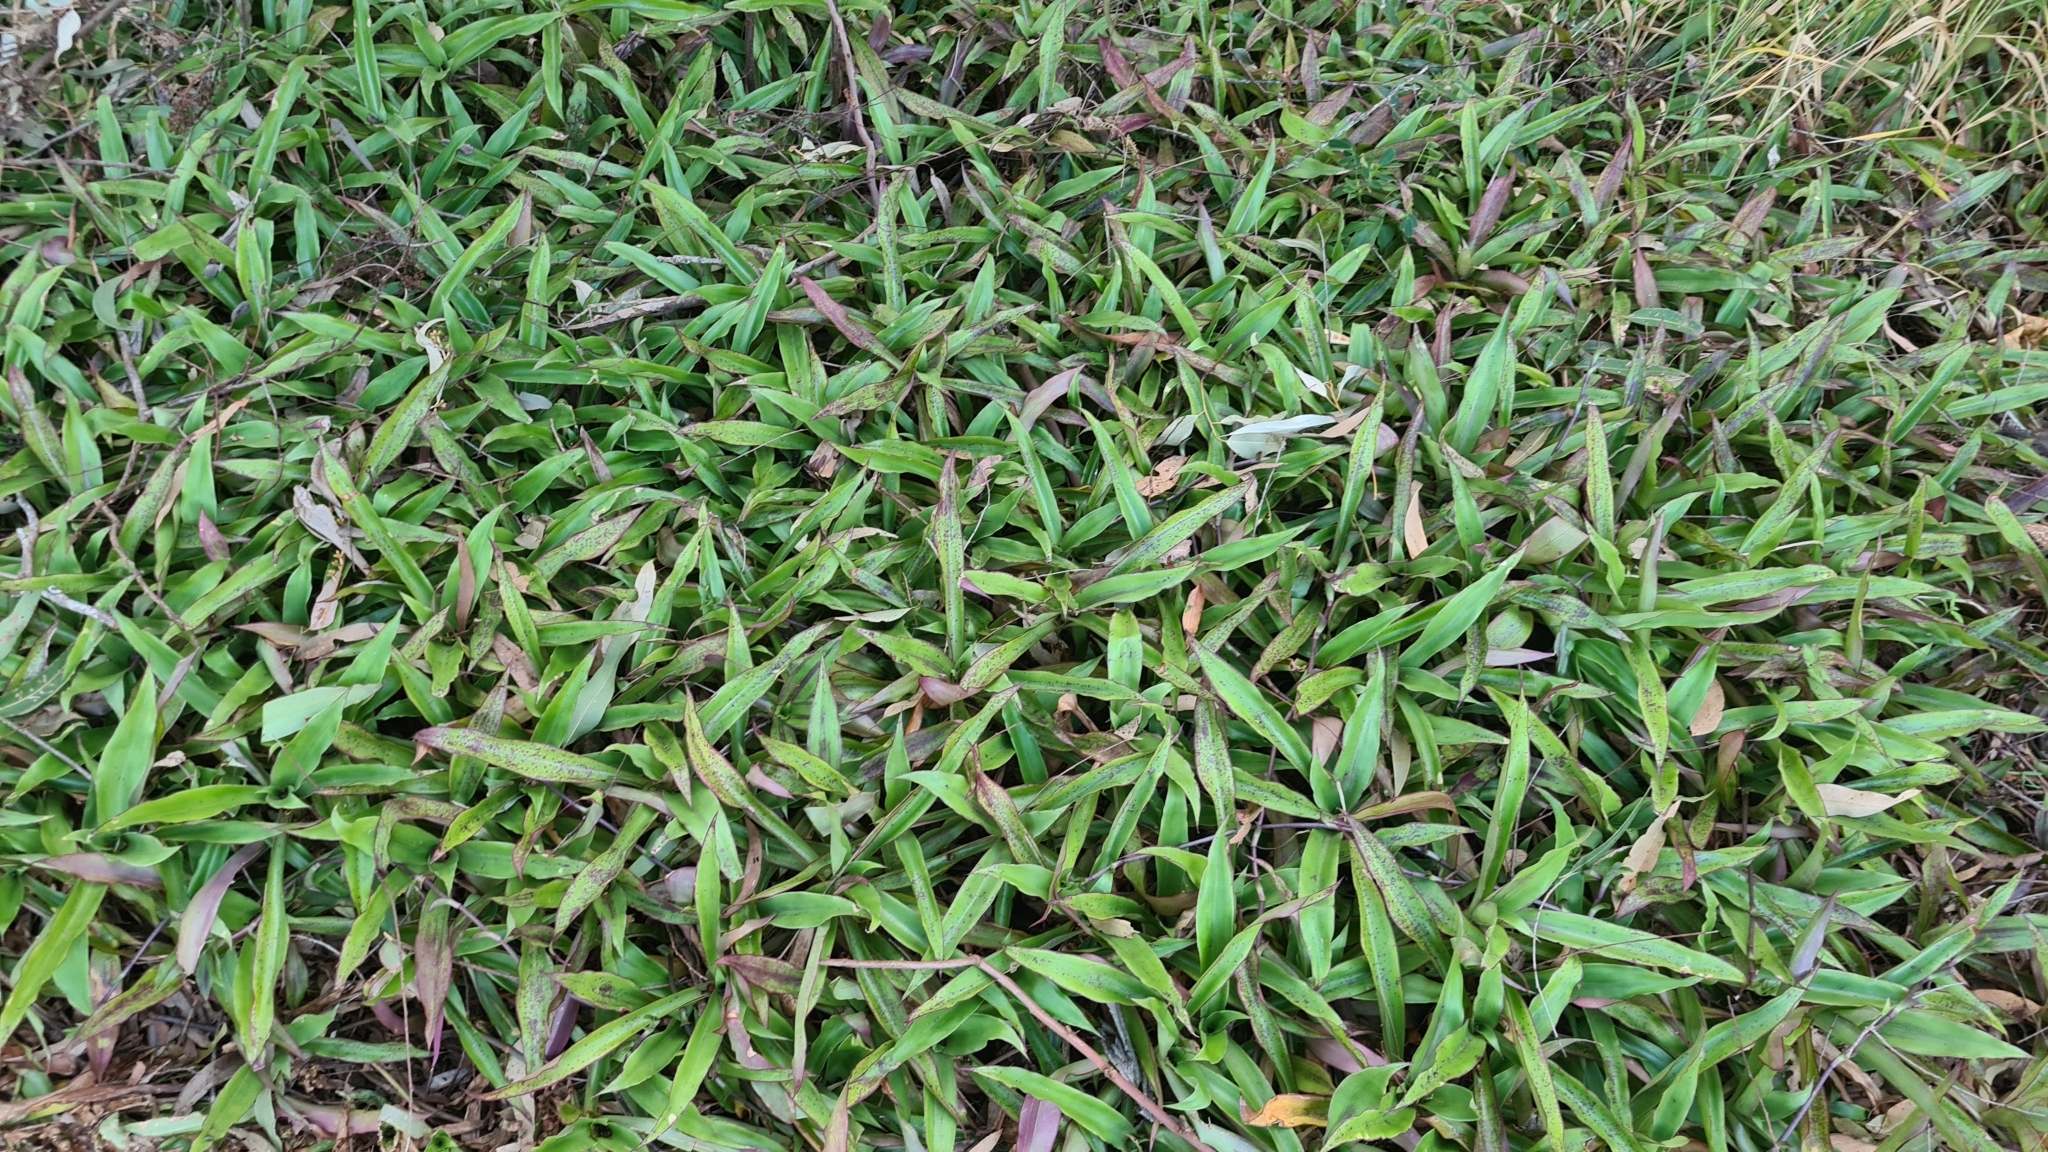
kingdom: Plantae
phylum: Tracheophyta
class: Liliopsida
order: Commelinales
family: Commelinaceae
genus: Callisia
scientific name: Callisia fragrans
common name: Basketplant
